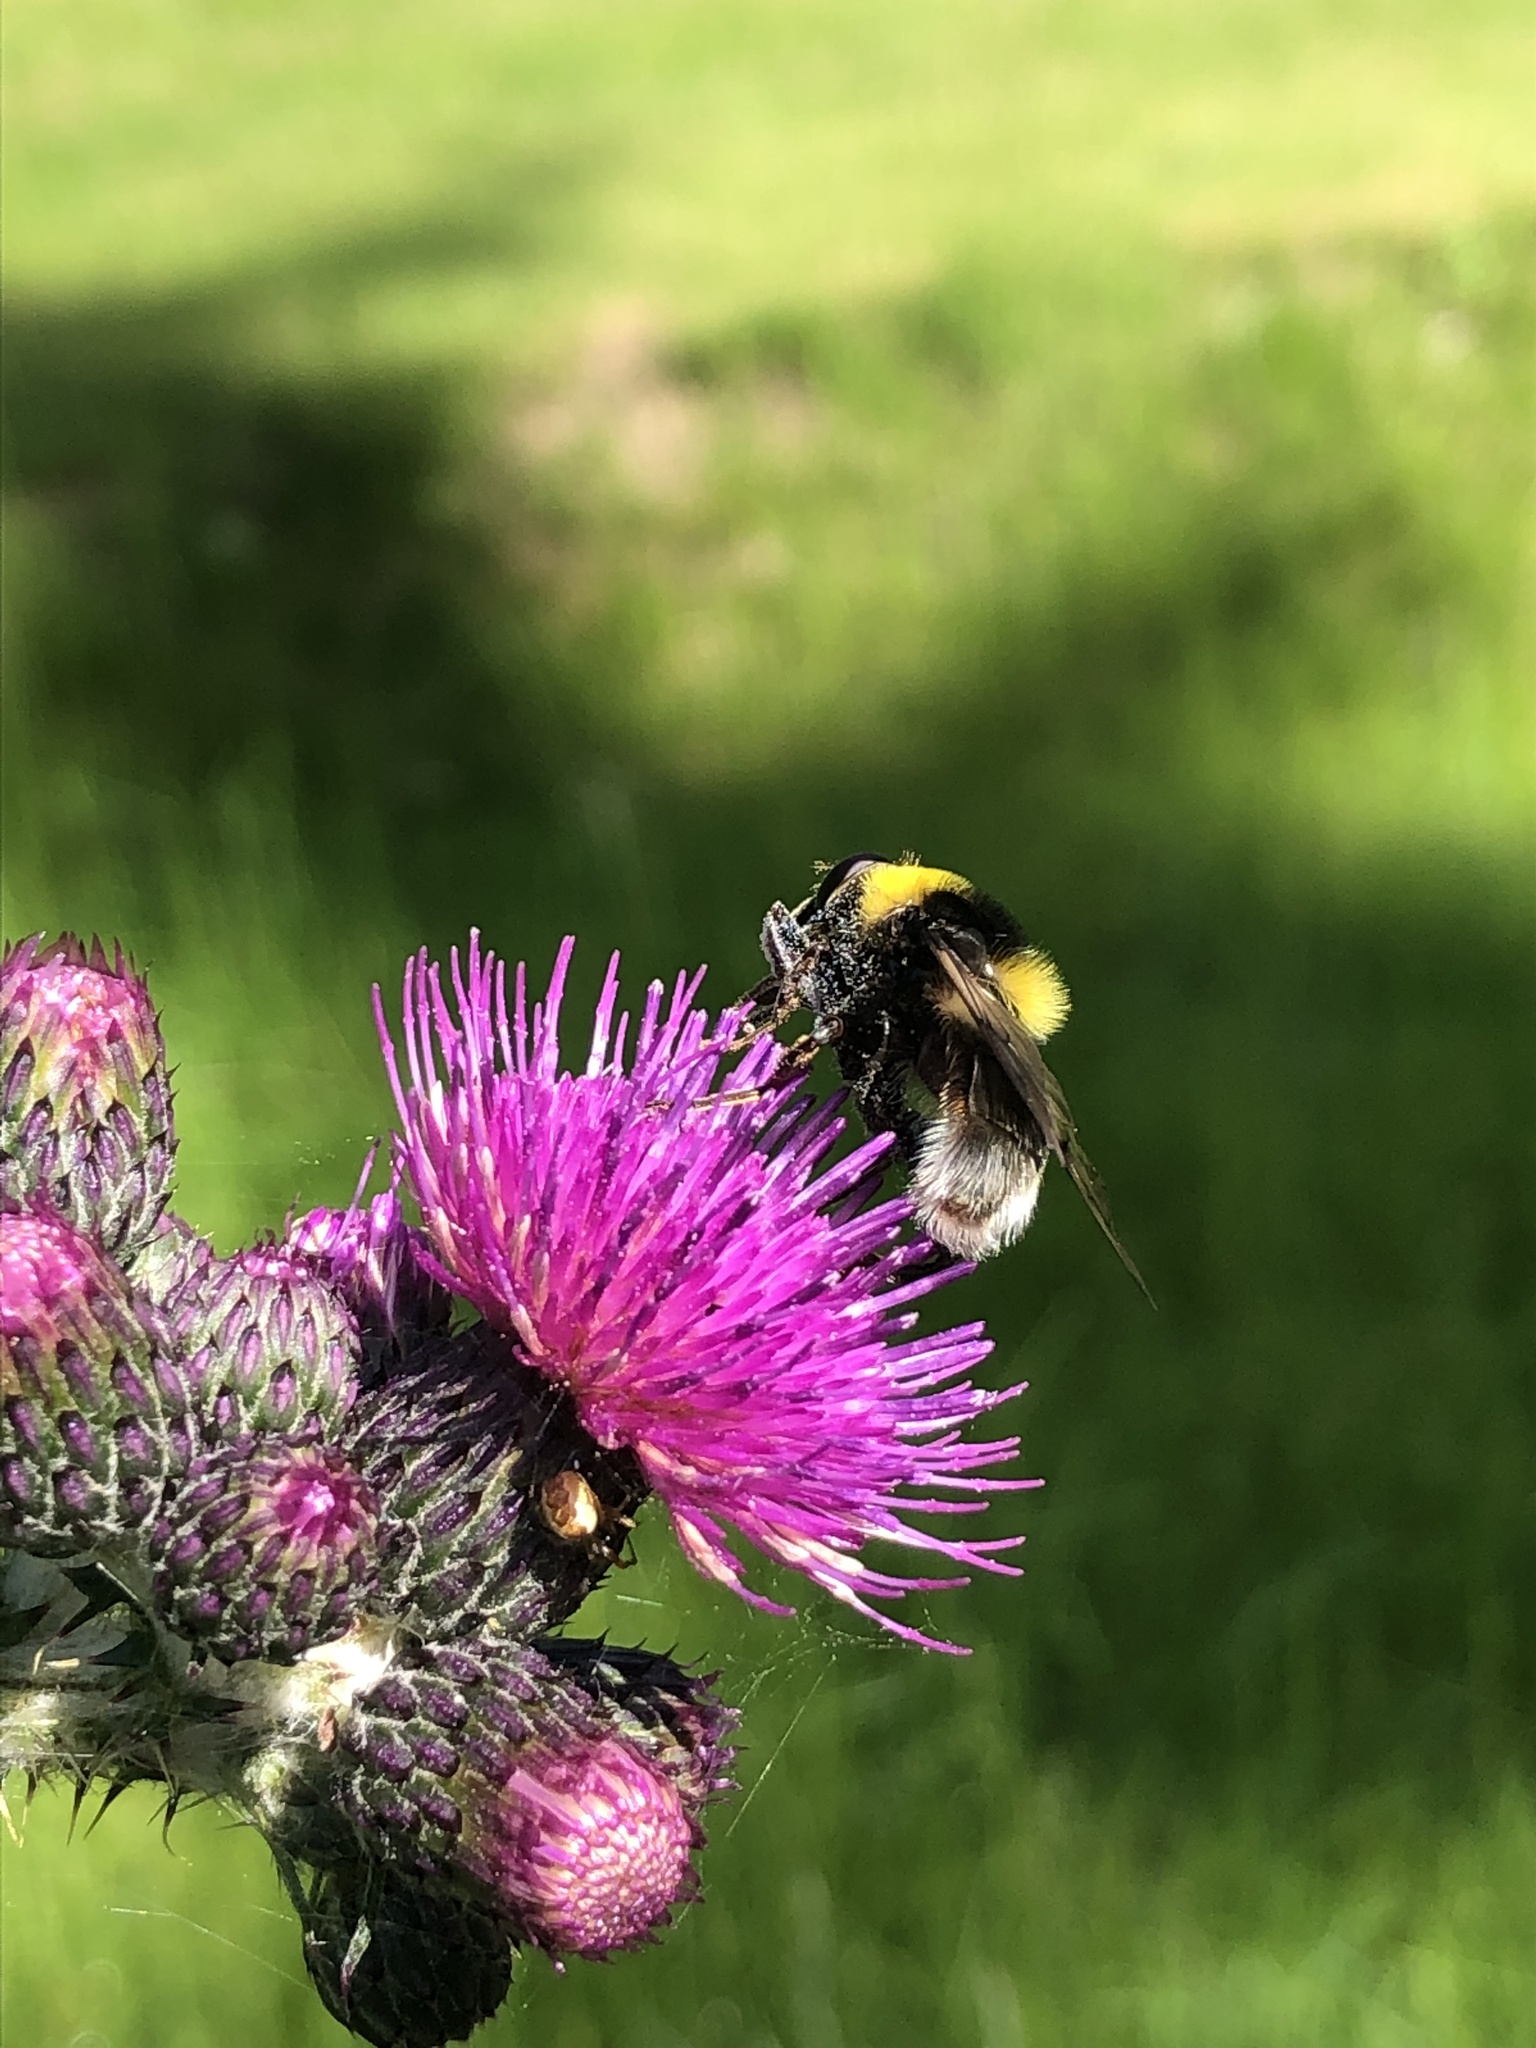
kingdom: Animalia
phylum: Arthropoda
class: Insecta
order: Diptera
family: Syrphidae
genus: Sericomyia
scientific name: Sericomyia bombiformis
